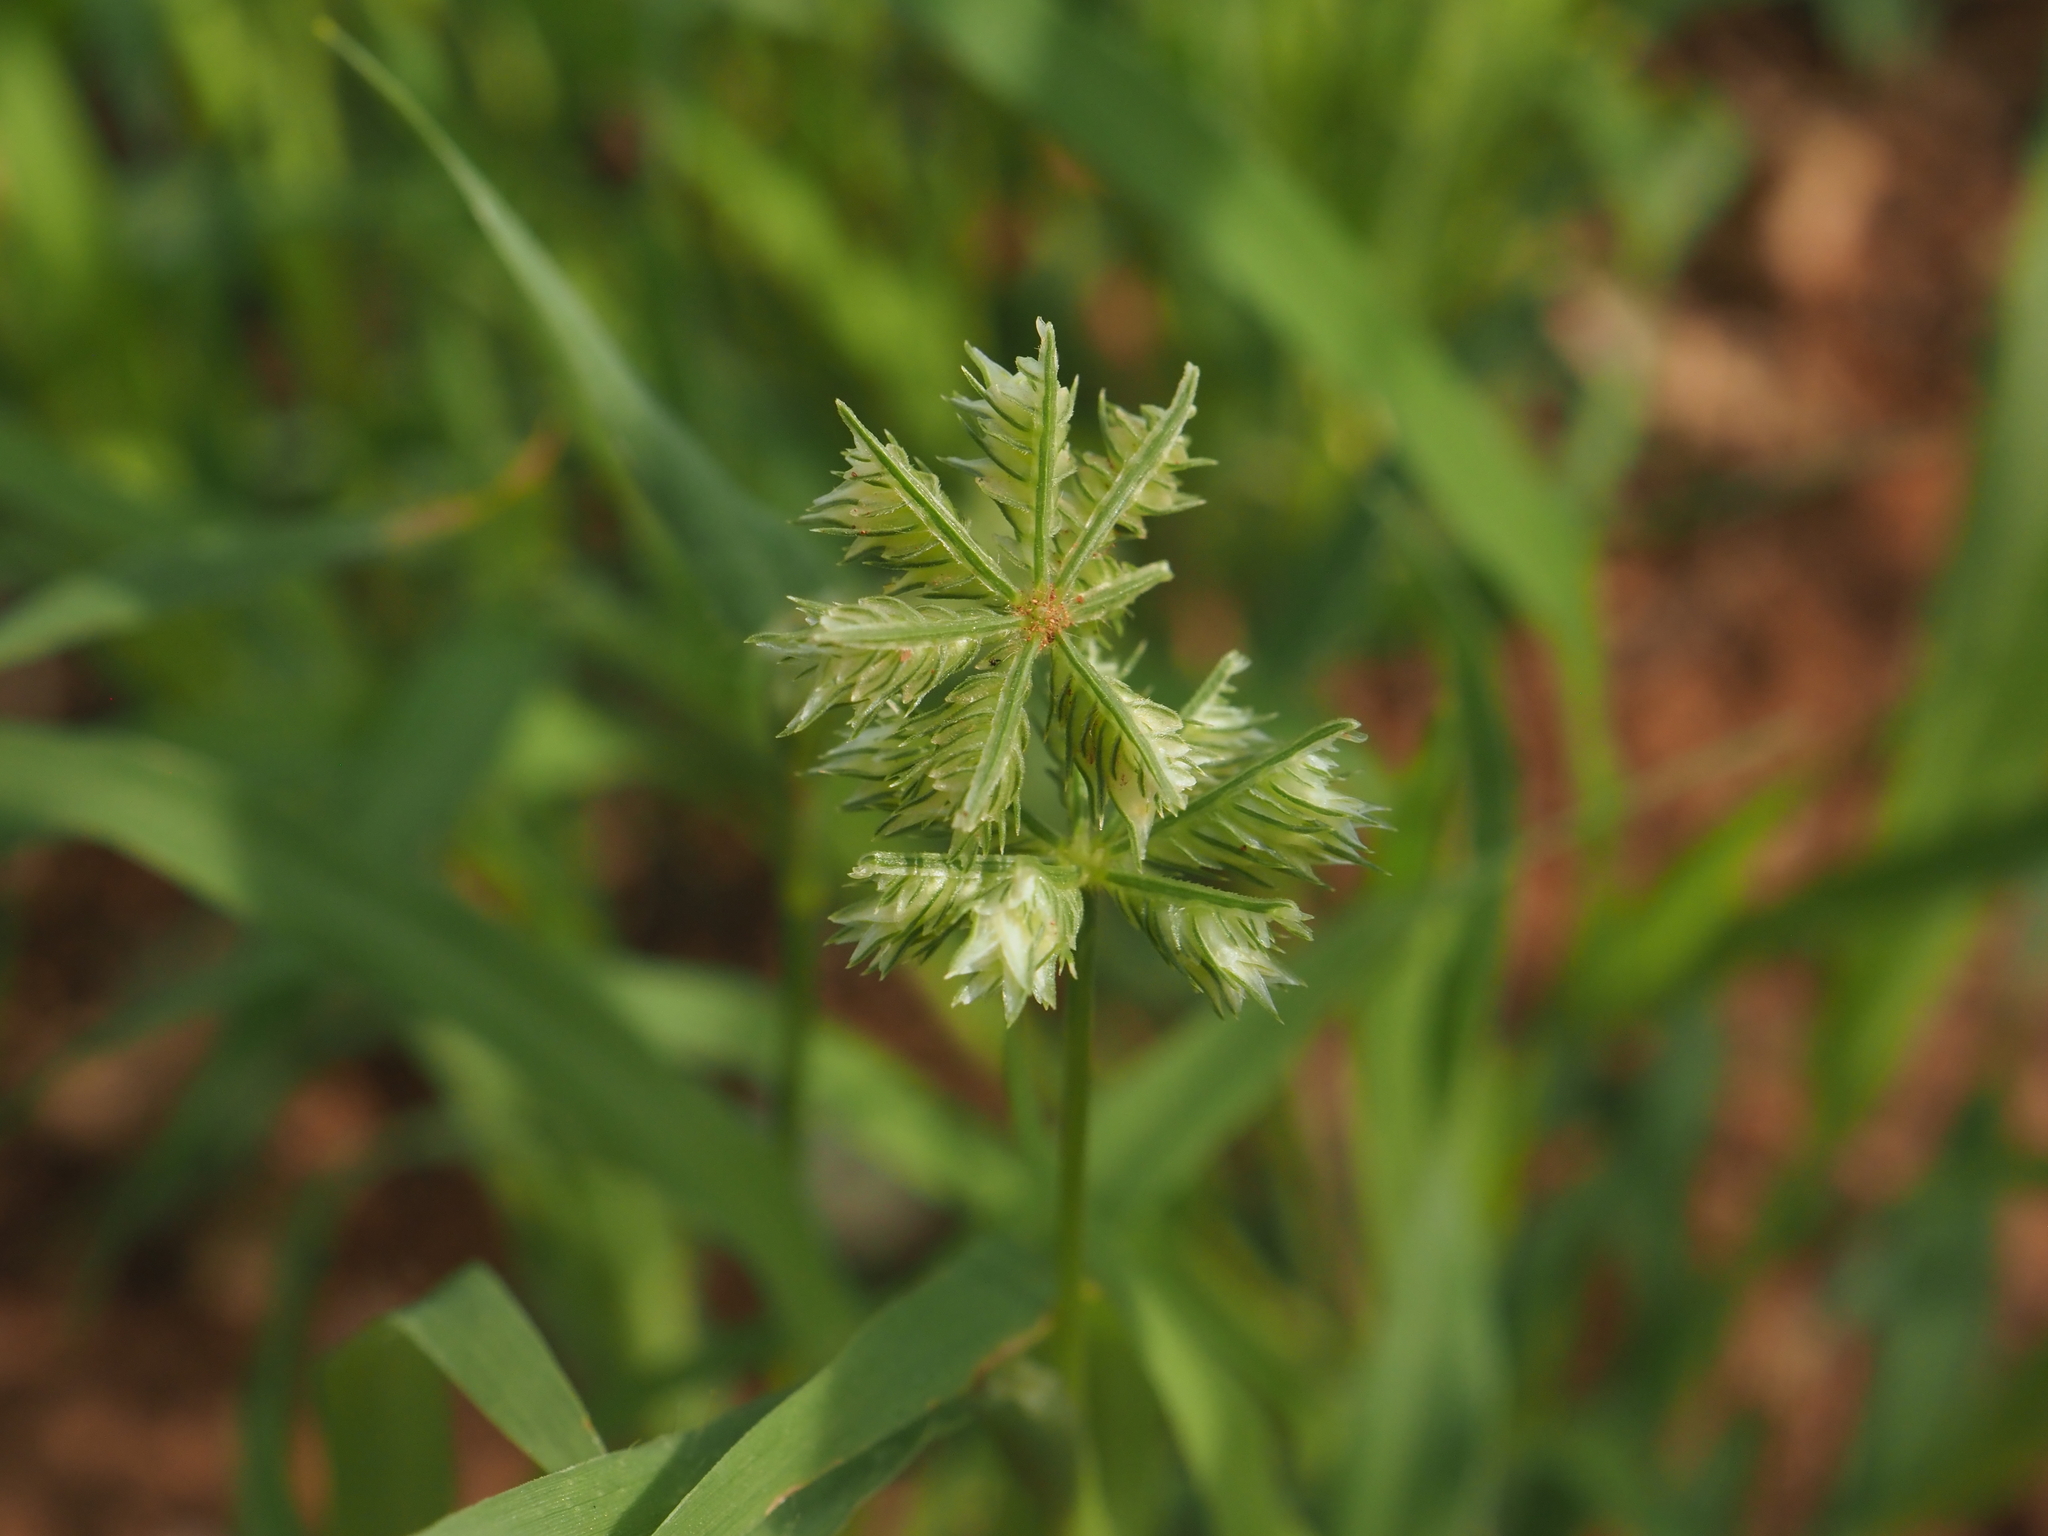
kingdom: Plantae
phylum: Tracheophyta
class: Liliopsida
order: Poales
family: Poaceae
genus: Dactyloctenium
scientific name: Dactyloctenium radulans
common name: Button-grass
